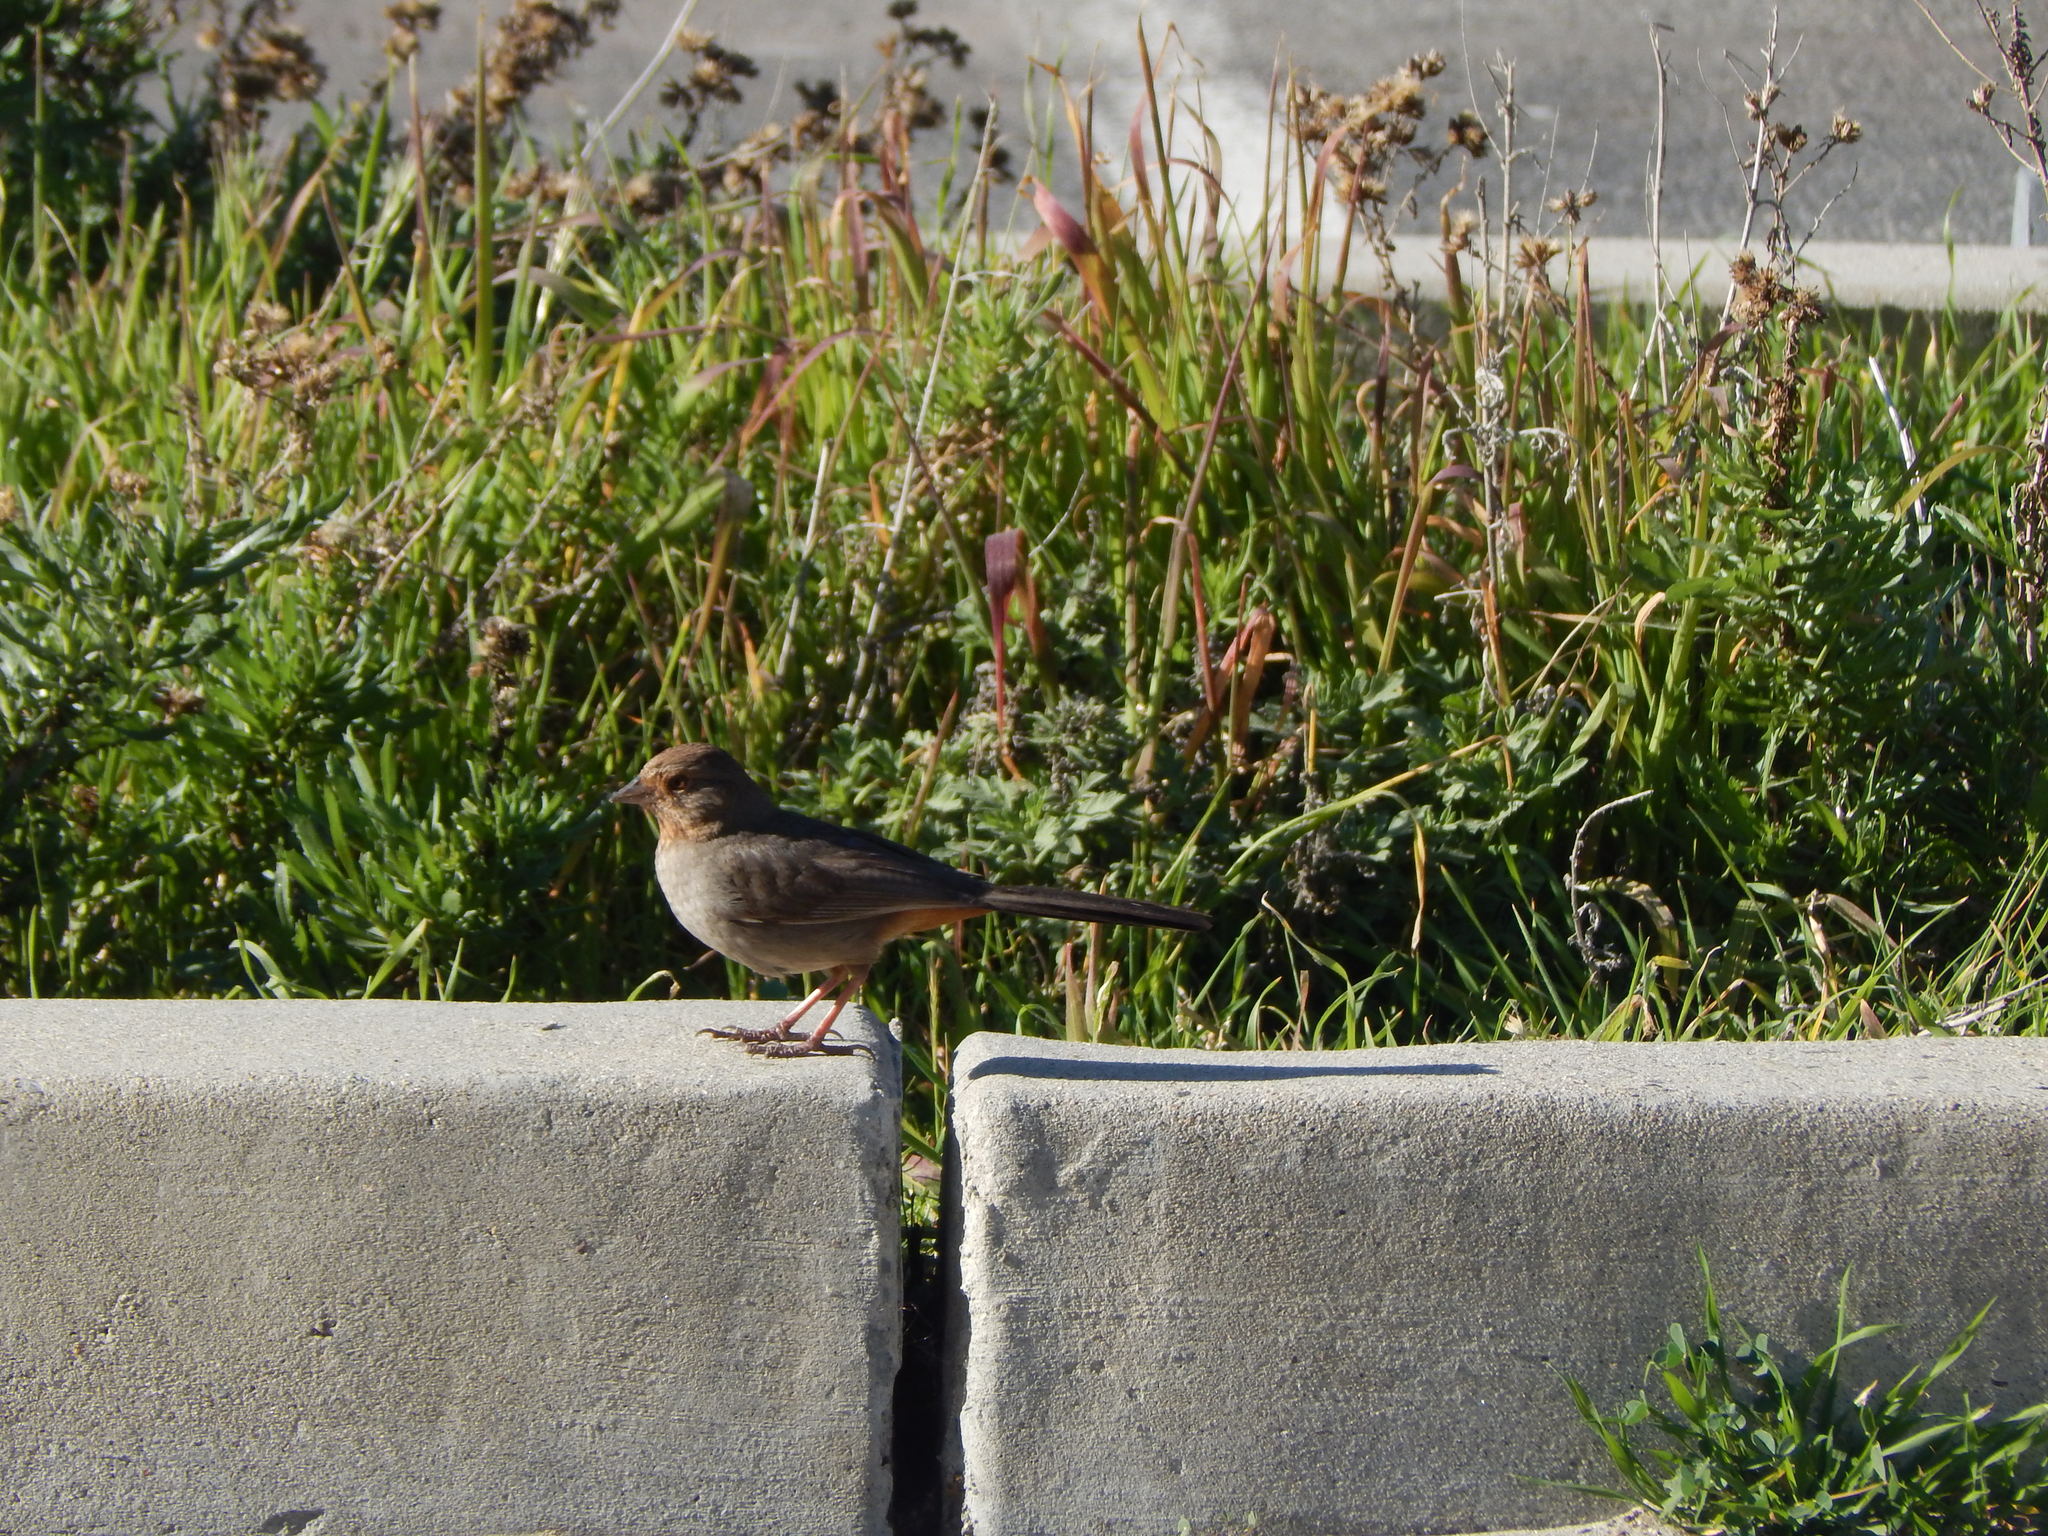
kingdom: Animalia
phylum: Chordata
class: Aves
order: Passeriformes
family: Passerellidae
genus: Melozone
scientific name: Melozone crissalis
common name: California towhee
